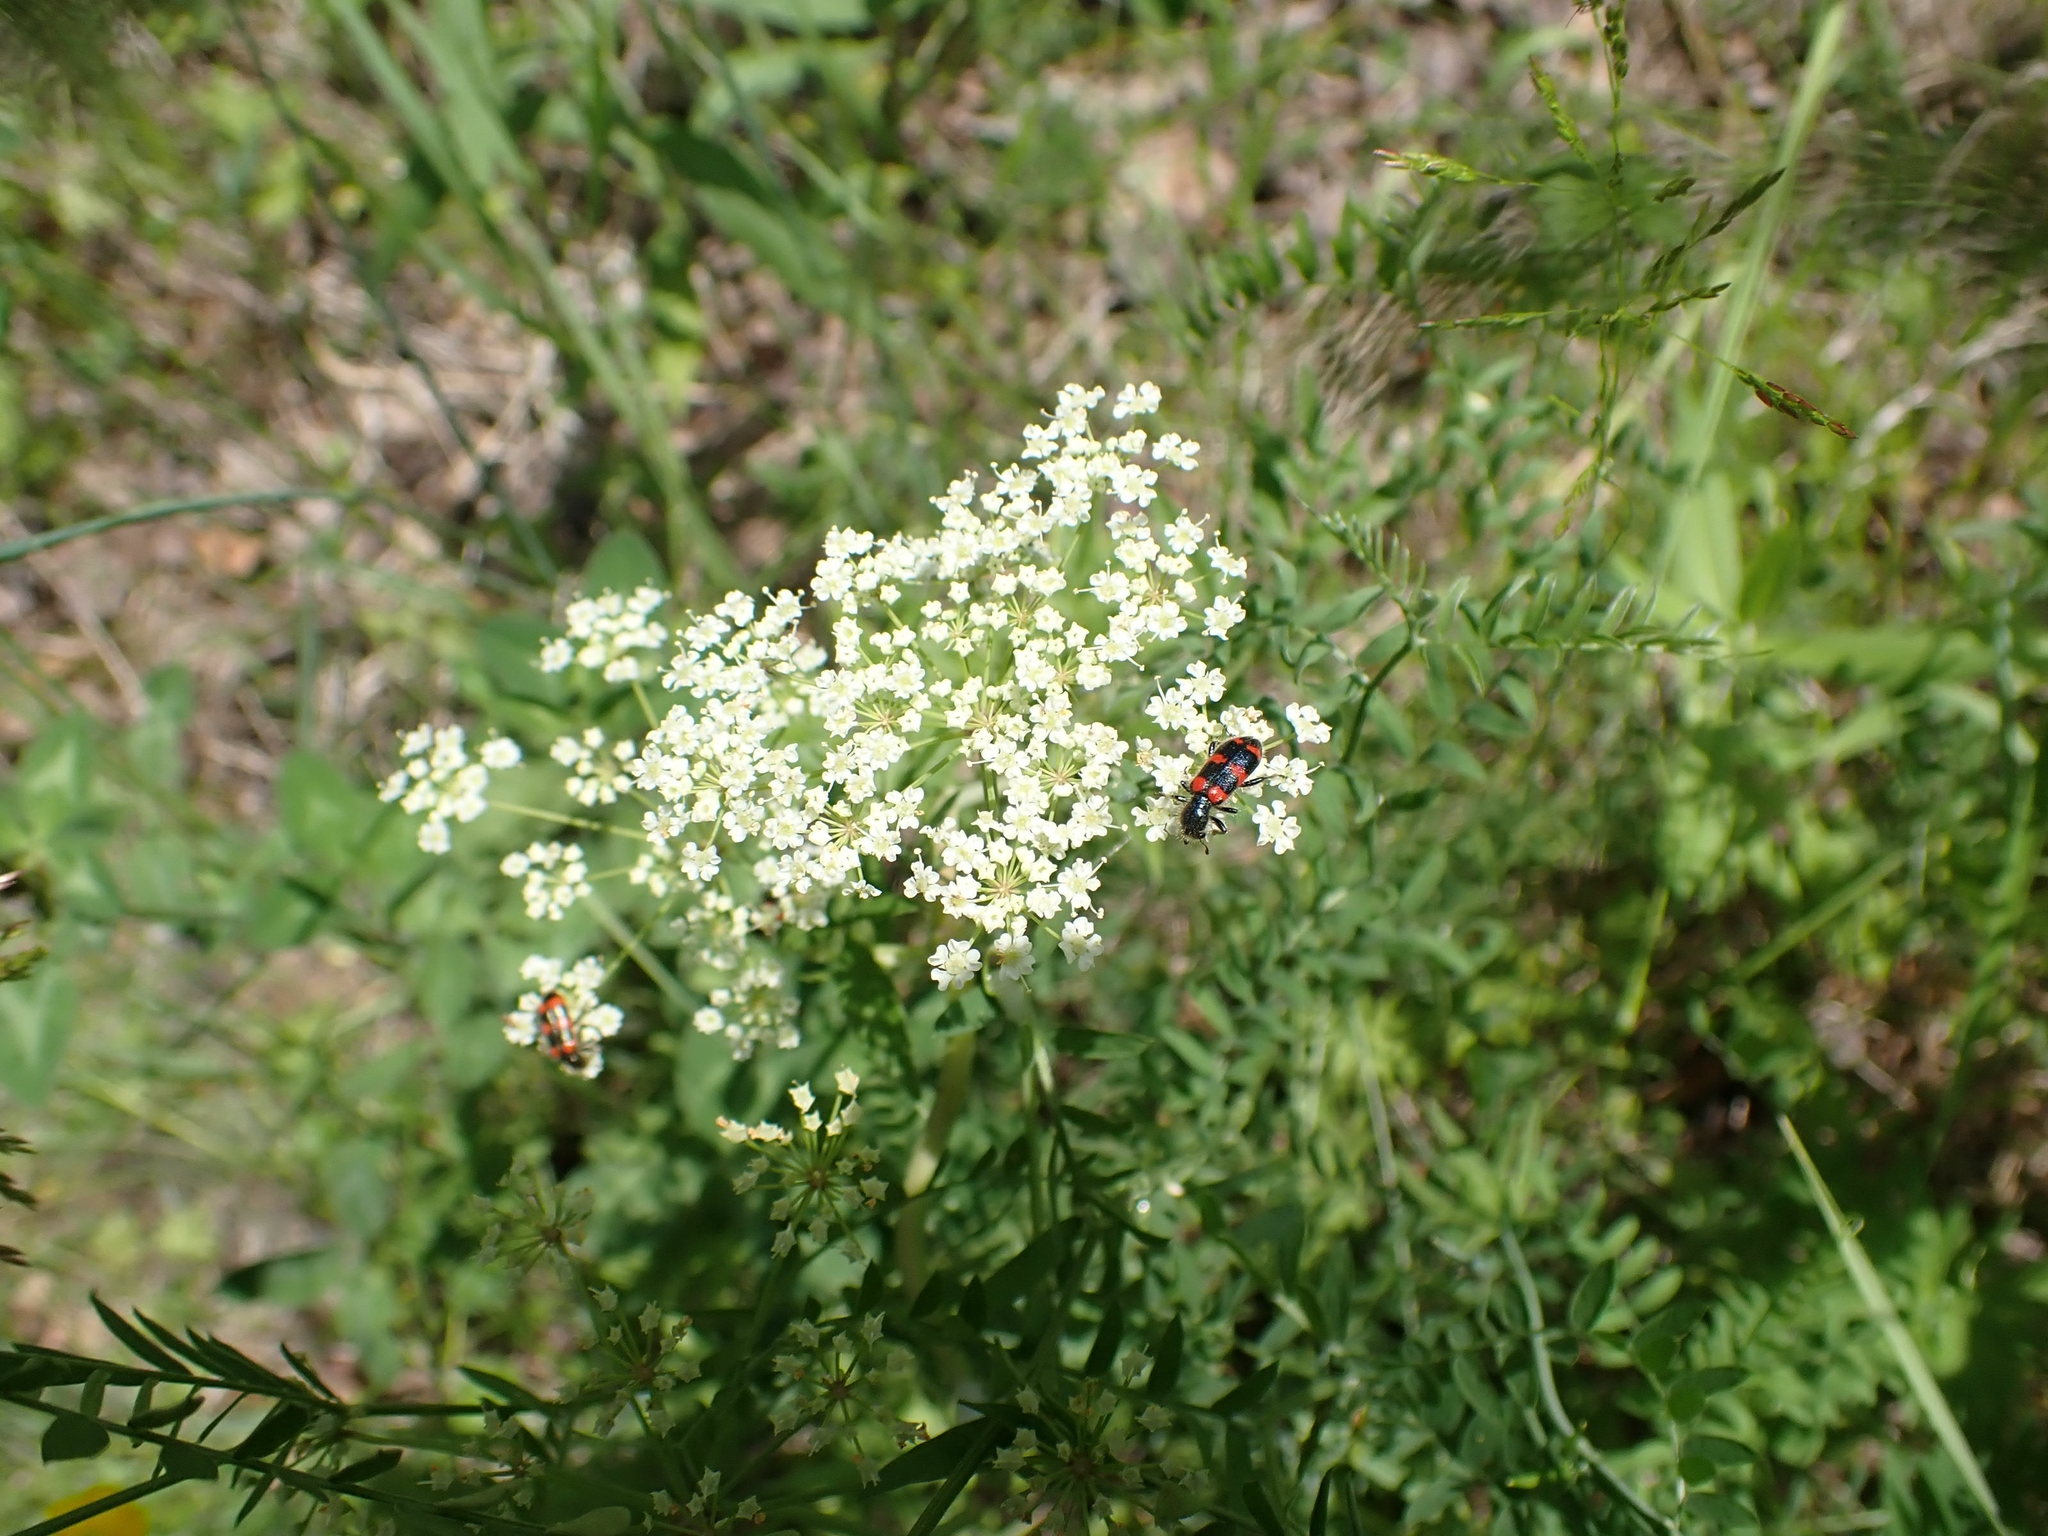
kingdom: Animalia
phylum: Arthropoda
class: Insecta
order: Coleoptera
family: Cleridae
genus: Trichodes
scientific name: Trichodes nutalli
